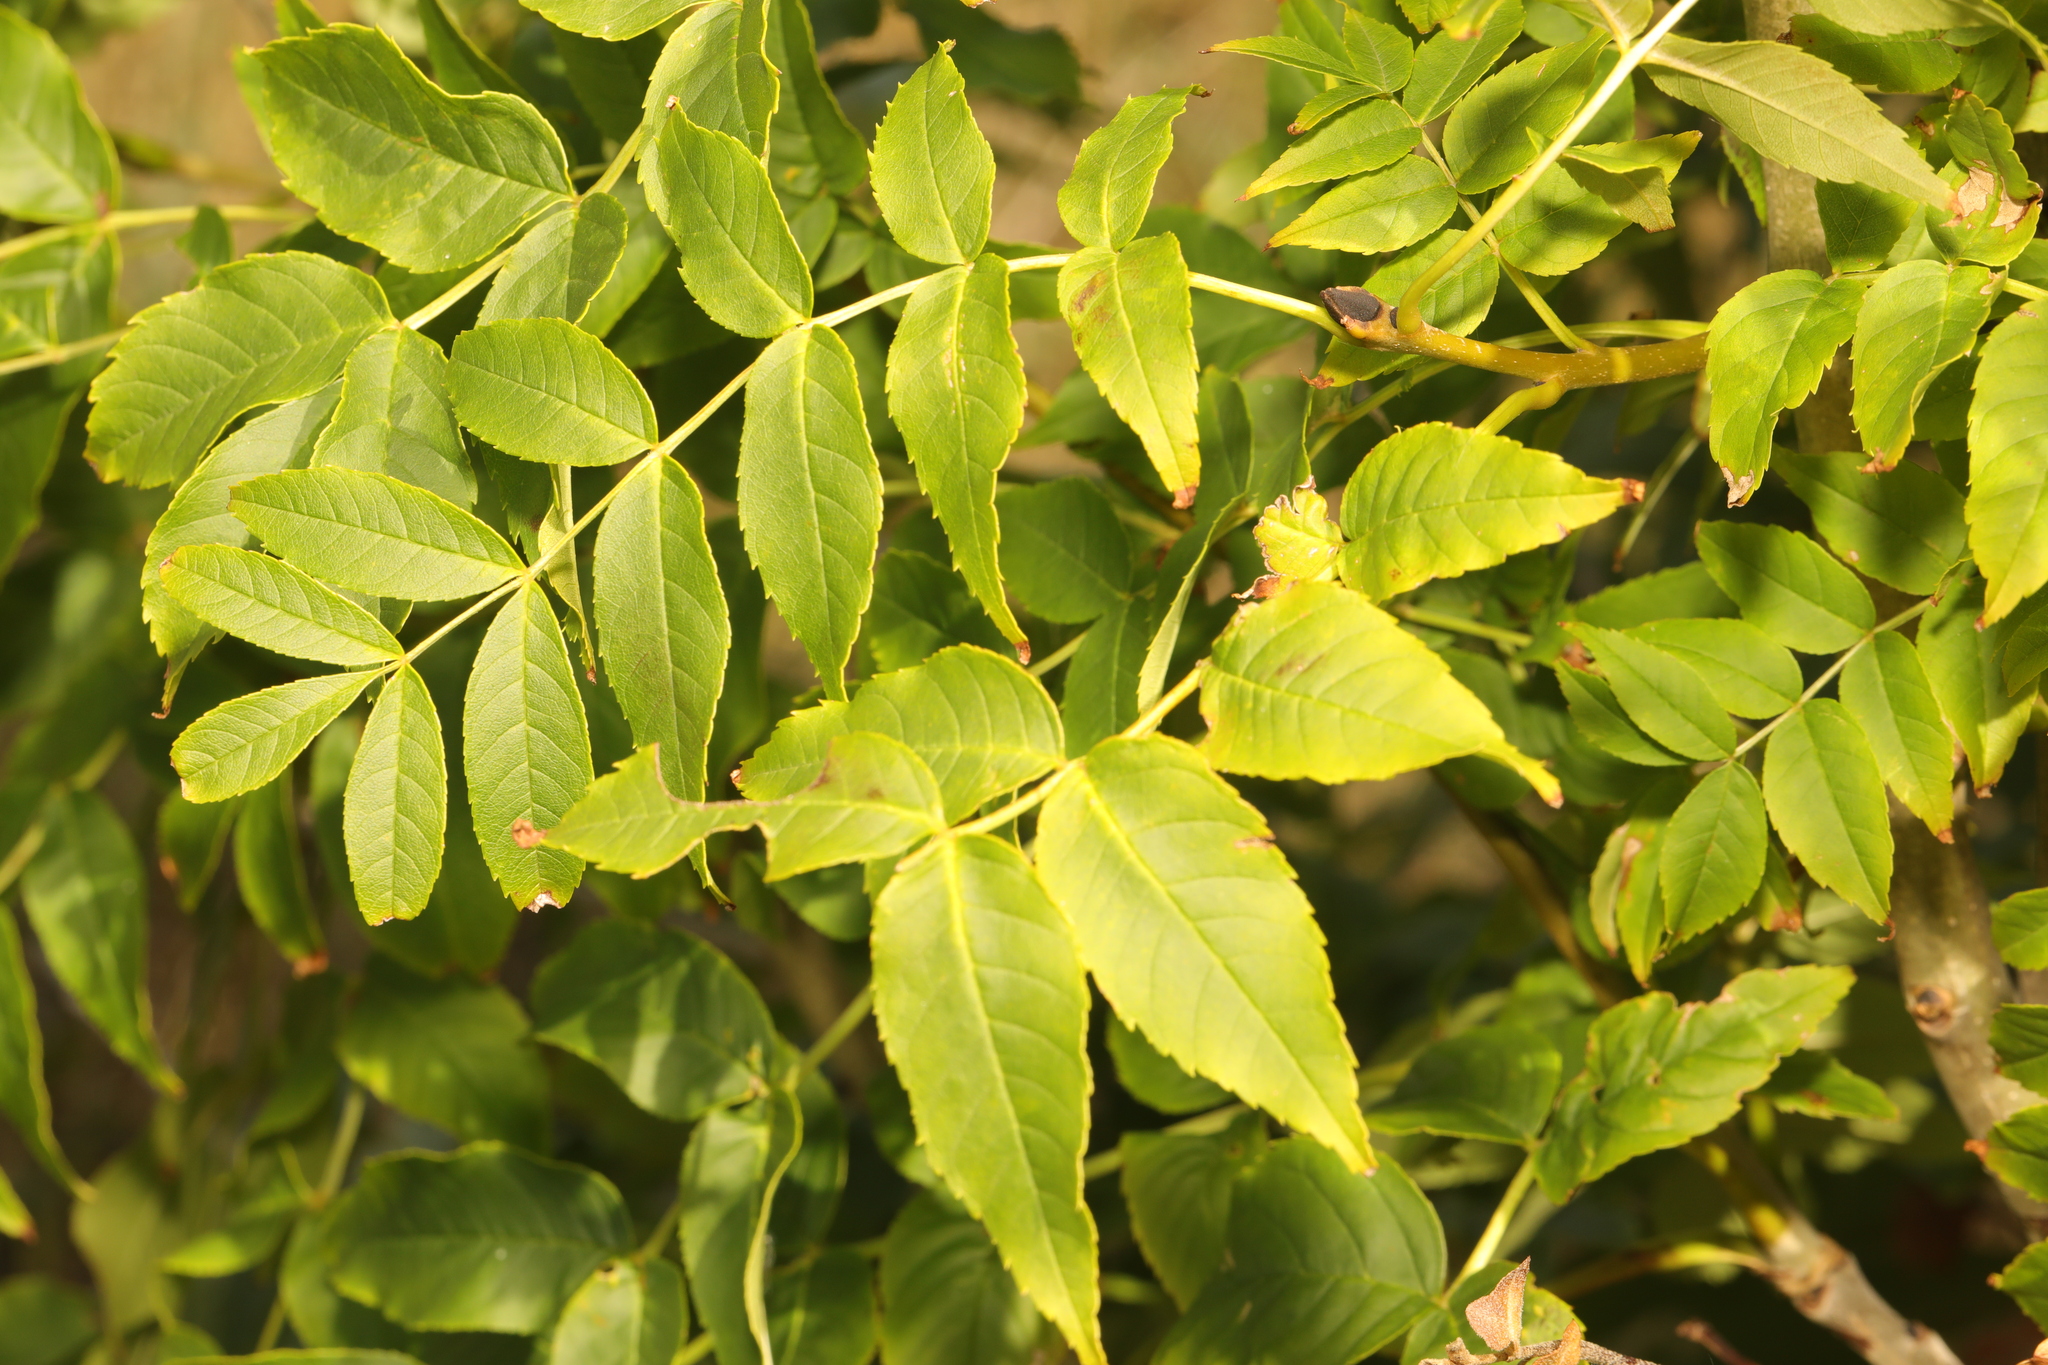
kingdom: Plantae
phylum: Tracheophyta
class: Magnoliopsida
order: Lamiales
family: Oleaceae
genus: Fraxinus
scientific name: Fraxinus excelsior
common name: European ash
